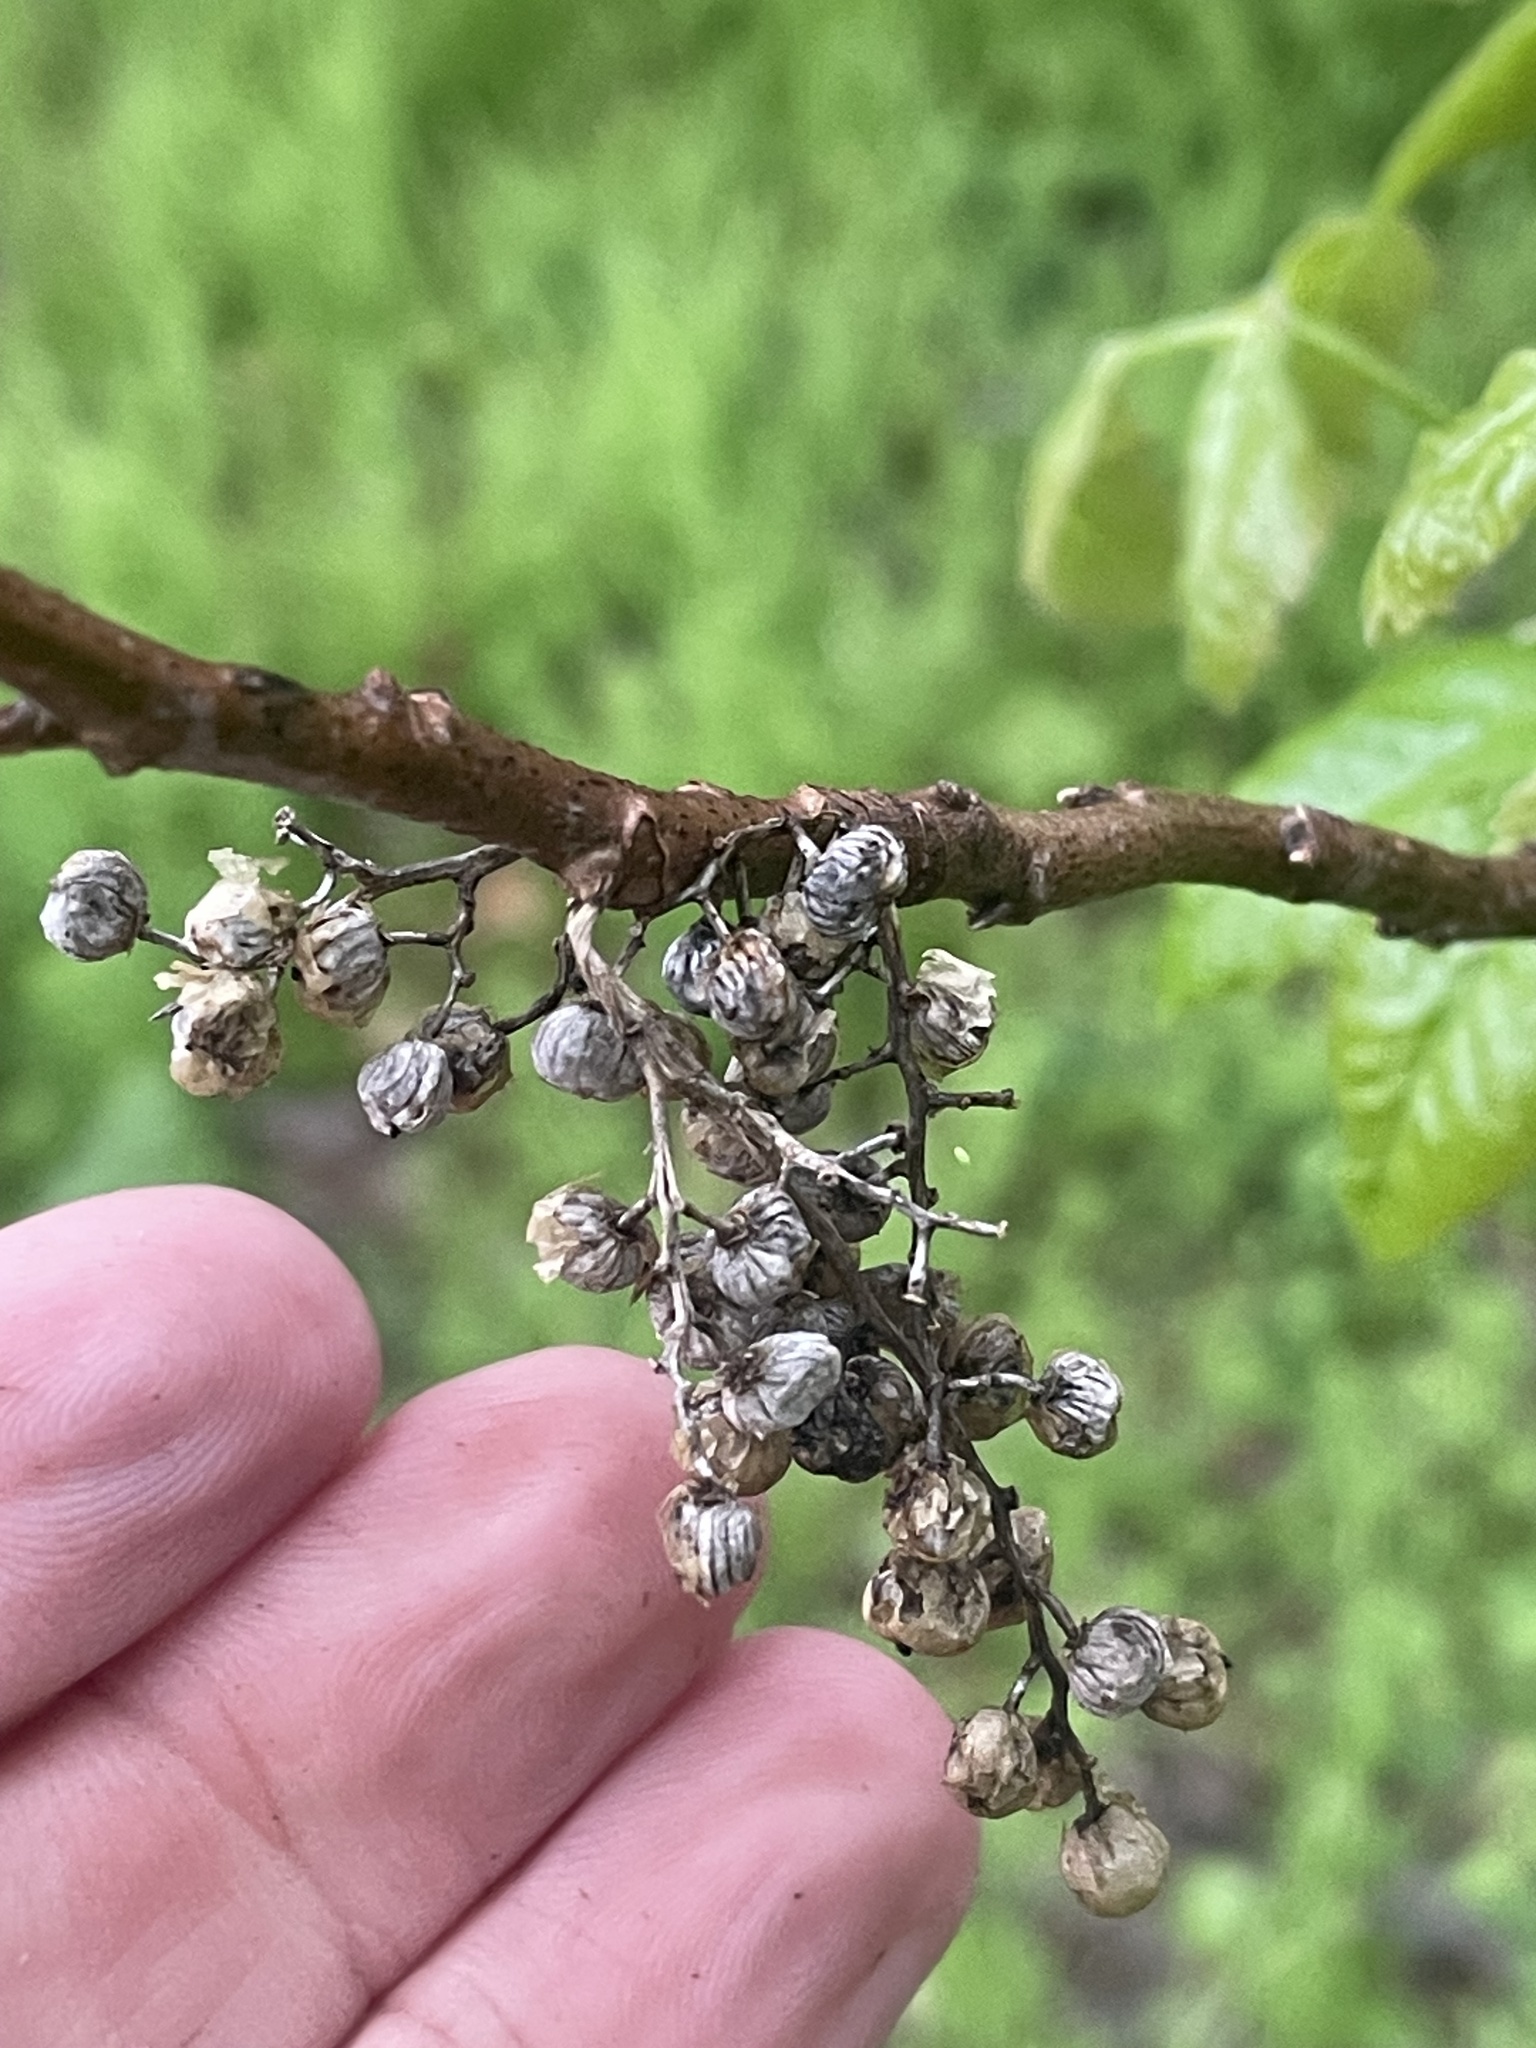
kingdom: Plantae
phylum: Tracheophyta
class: Magnoliopsida
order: Sapindales
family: Anacardiaceae
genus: Toxicodendron
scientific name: Toxicodendron radicans
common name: Poison ivy
